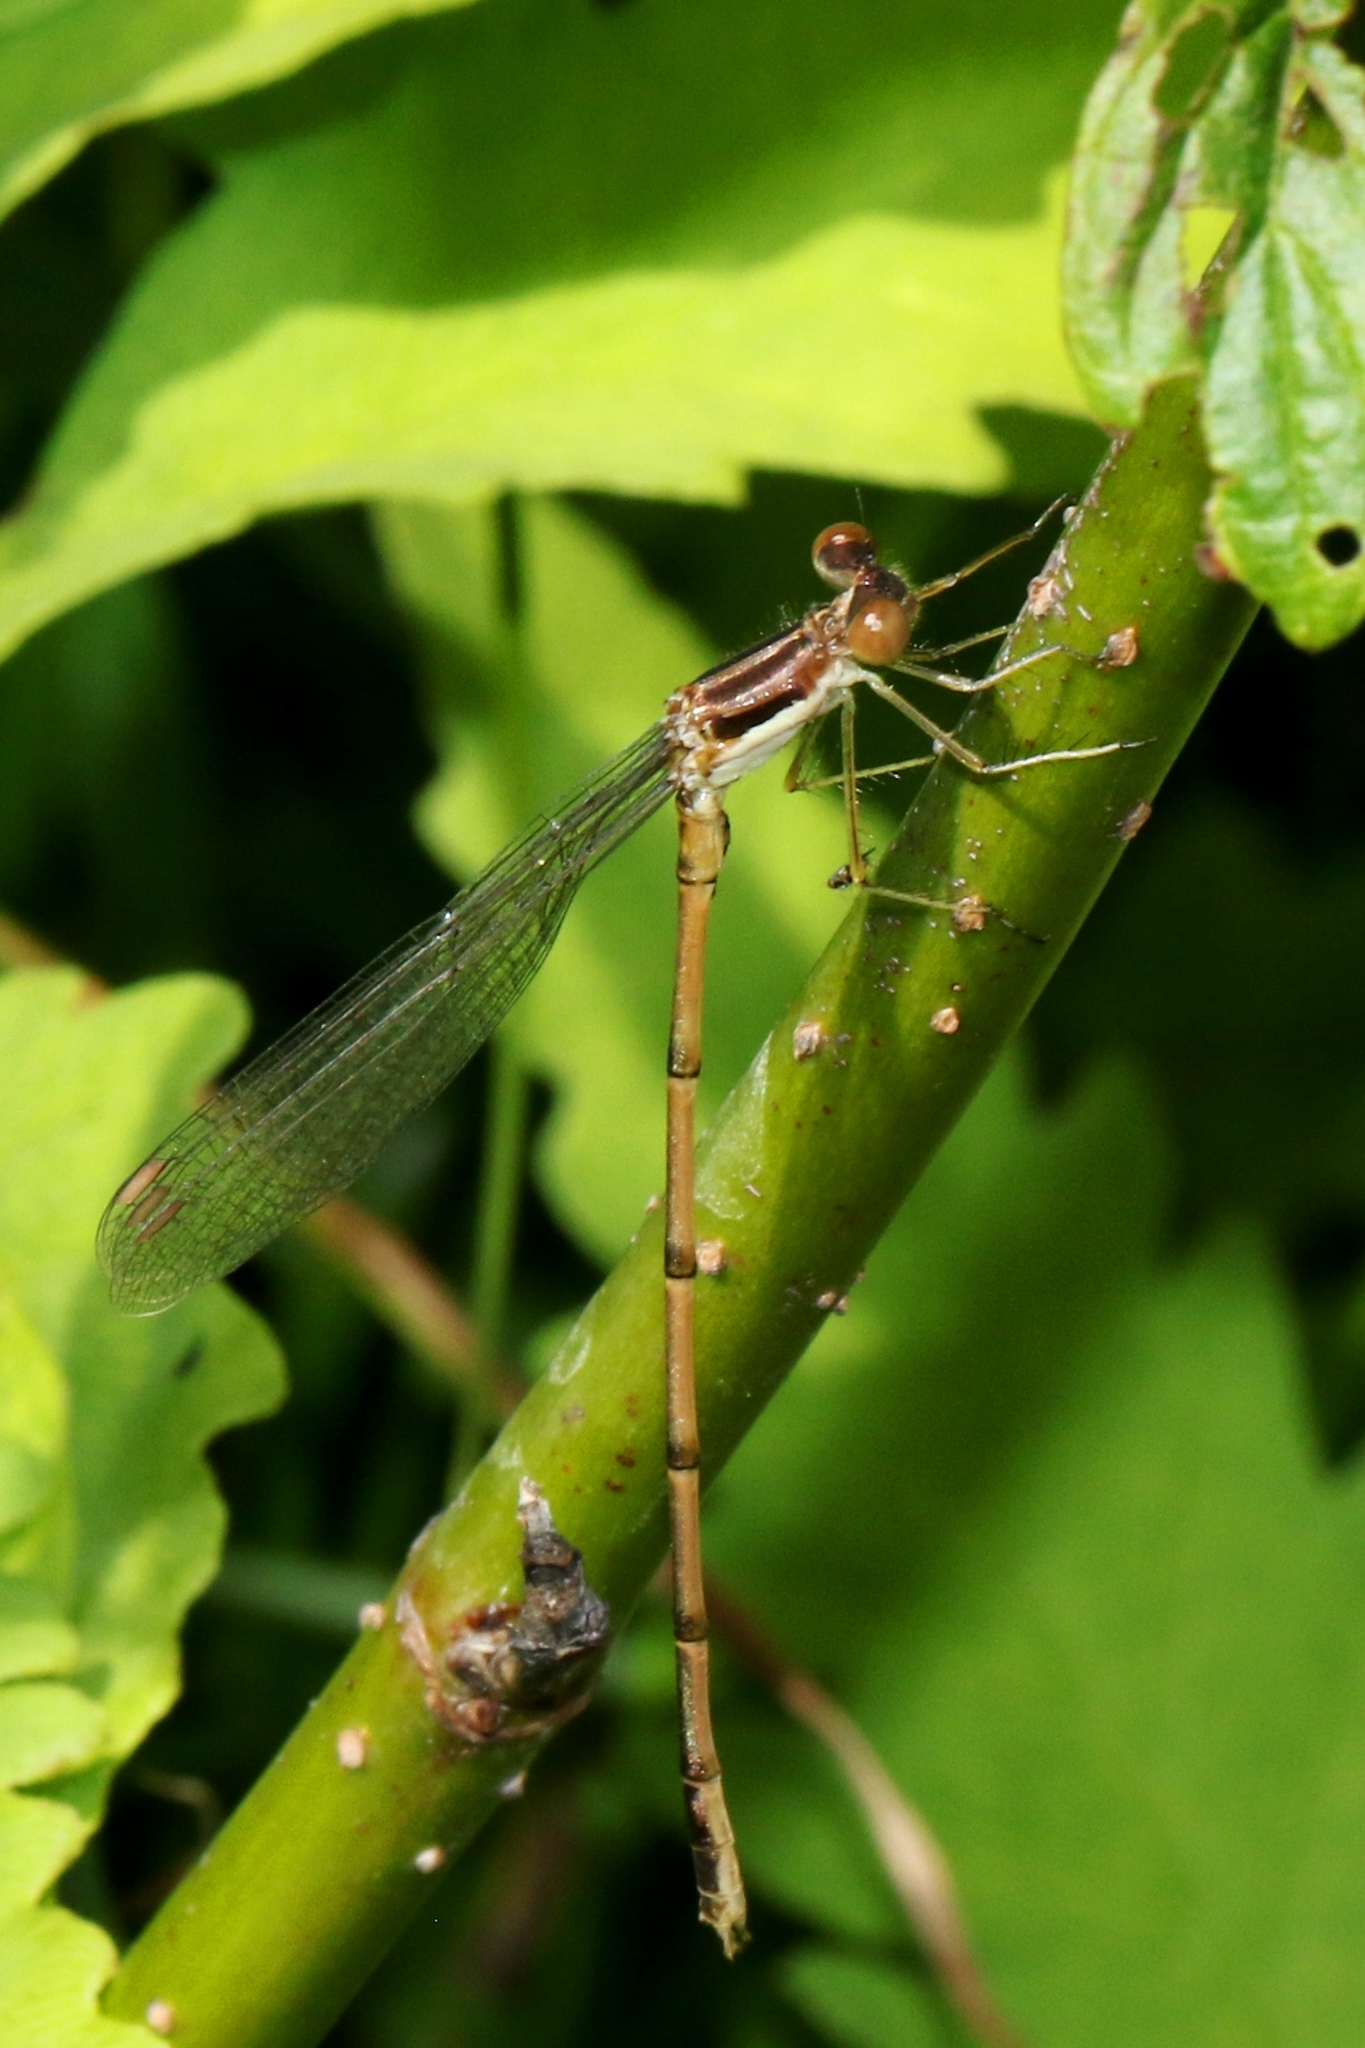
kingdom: Animalia
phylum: Arthropoda
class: Insecta
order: Odonata
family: Lestidae
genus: Lestes
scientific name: Lestes rectangularis
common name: Slender spreadwing
